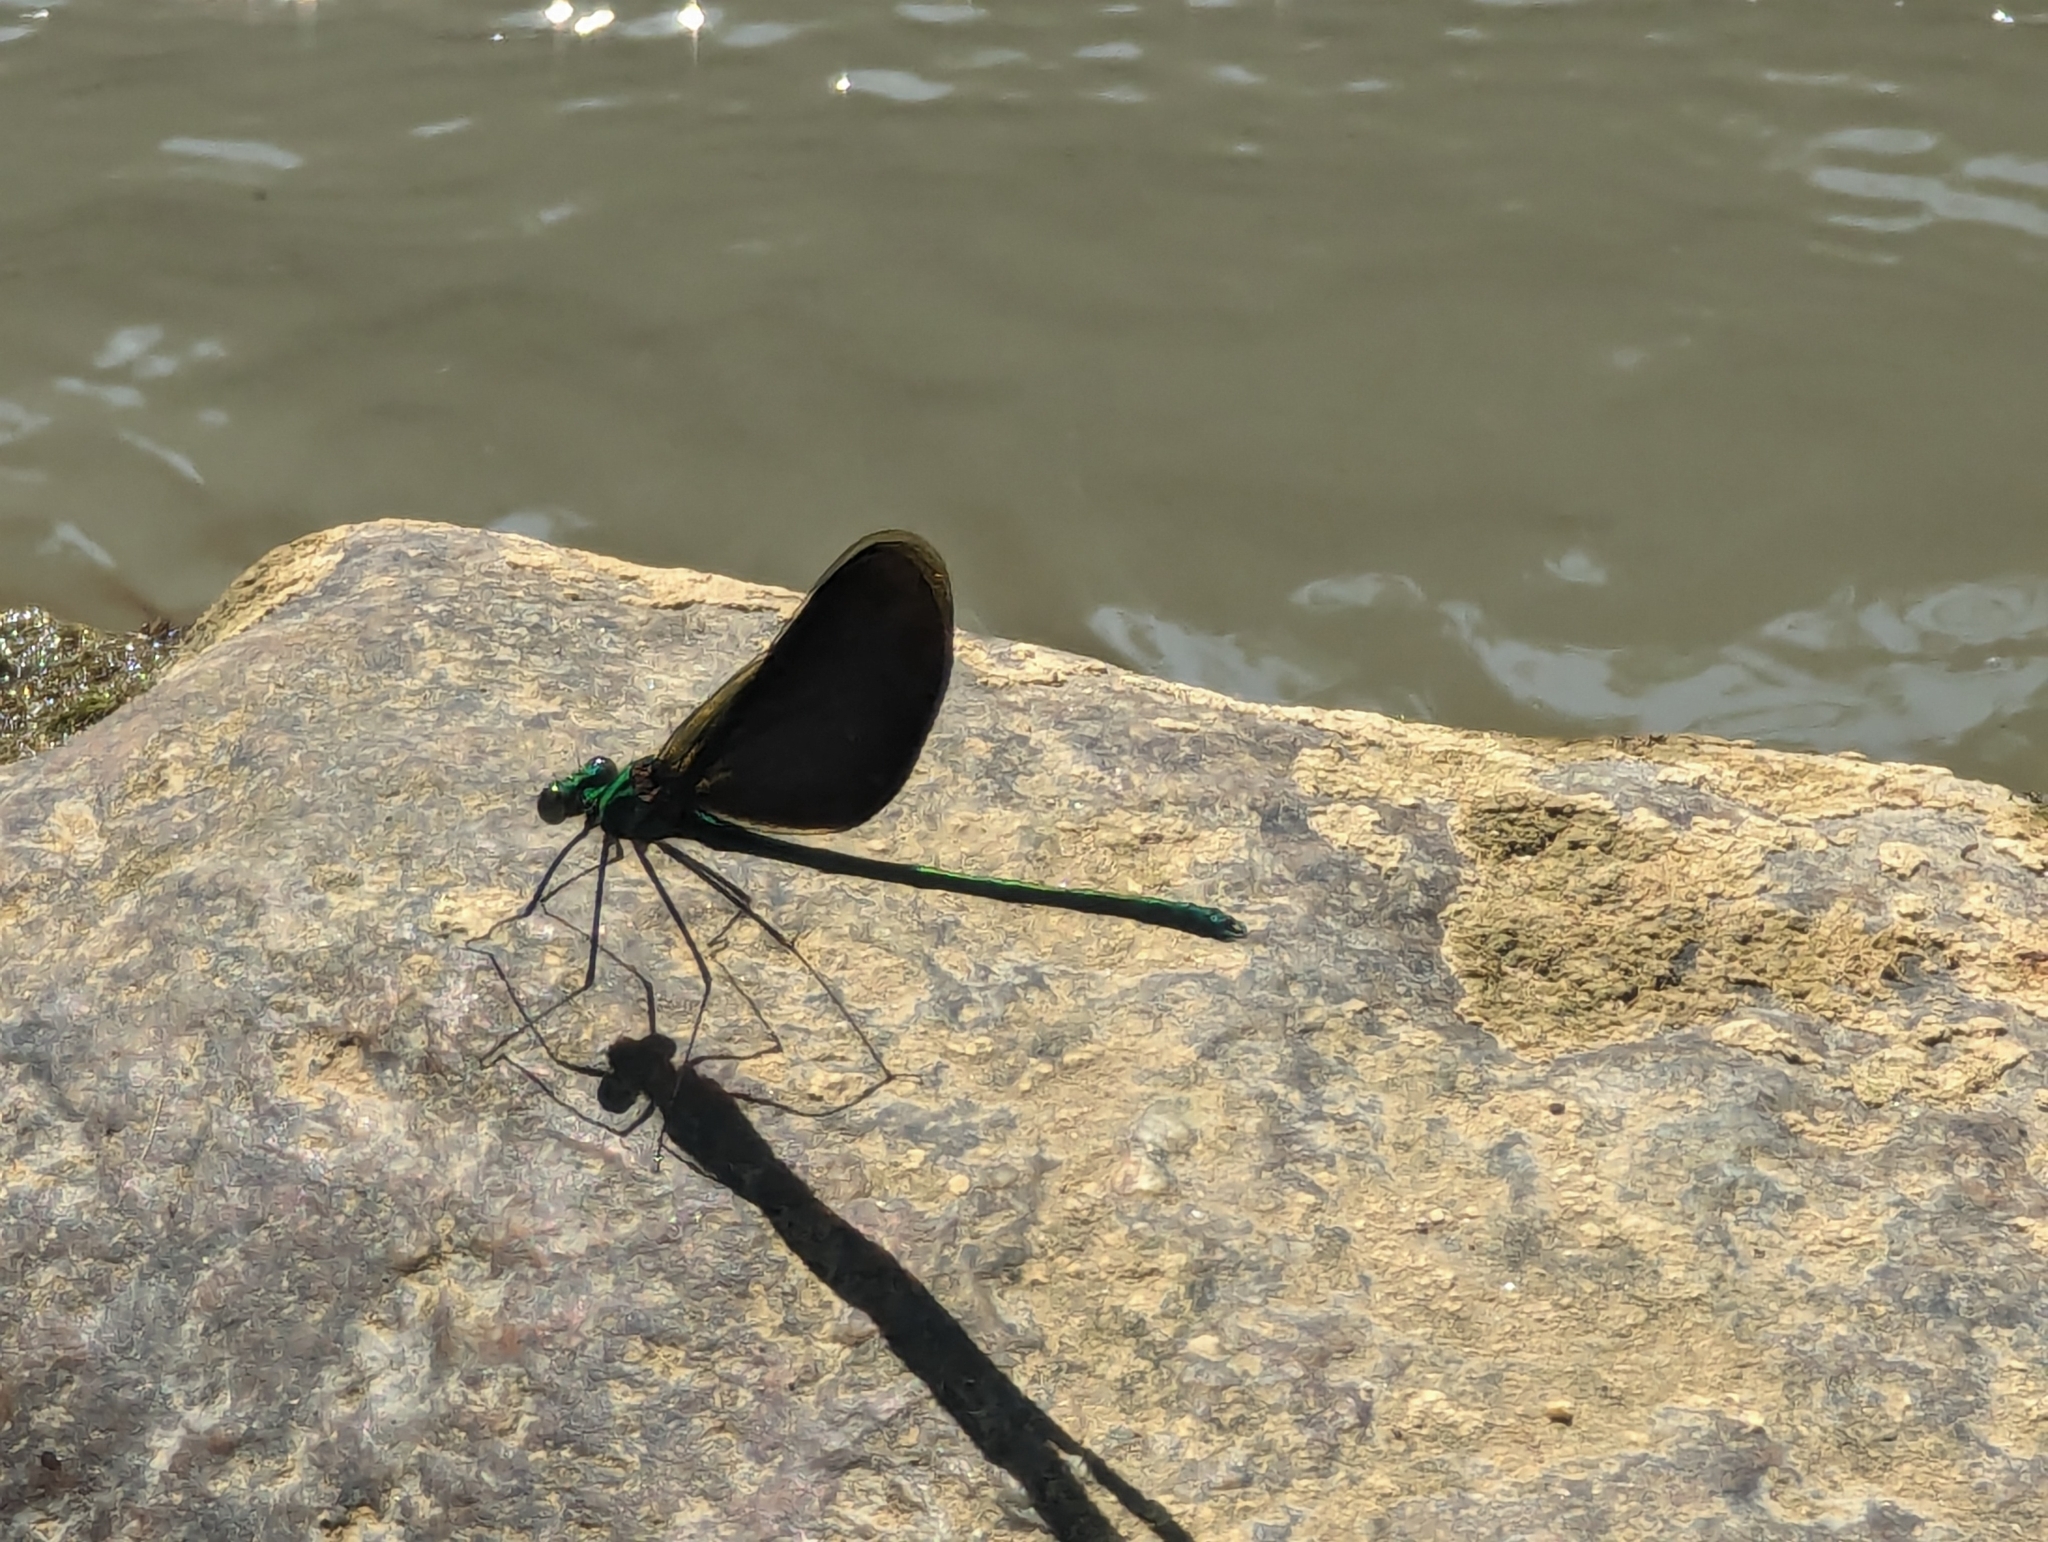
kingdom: Animalia
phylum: Arthropoda
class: Insecta
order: Odonata
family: Calopterygidae
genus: Neurobasis
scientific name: Neurobasis chinensis
